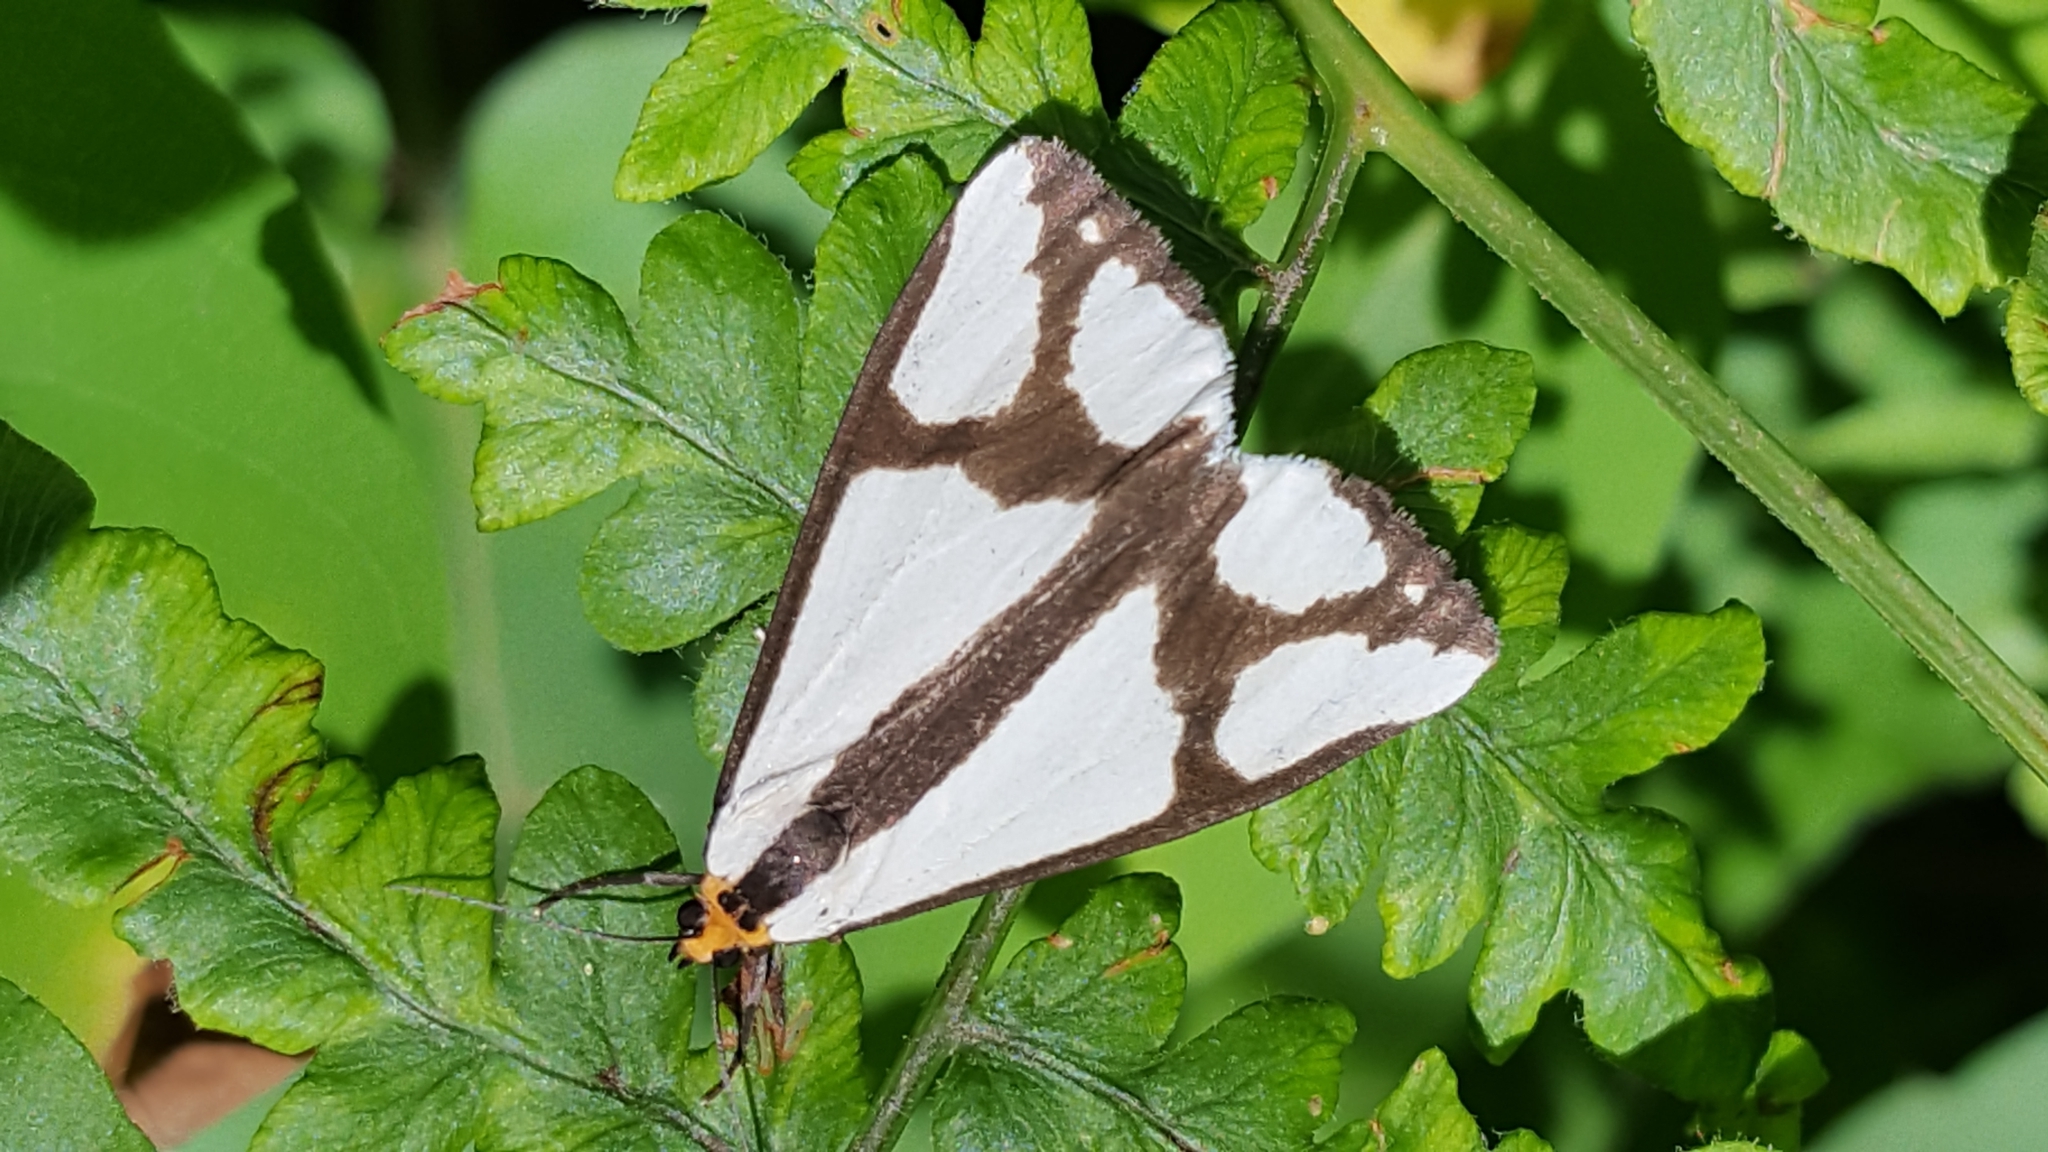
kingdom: Animalia
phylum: Arthropoda
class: Insecta
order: Lepidoptera
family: Erebidae
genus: Haploa
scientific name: Haploa contigua
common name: Neighbor moth
